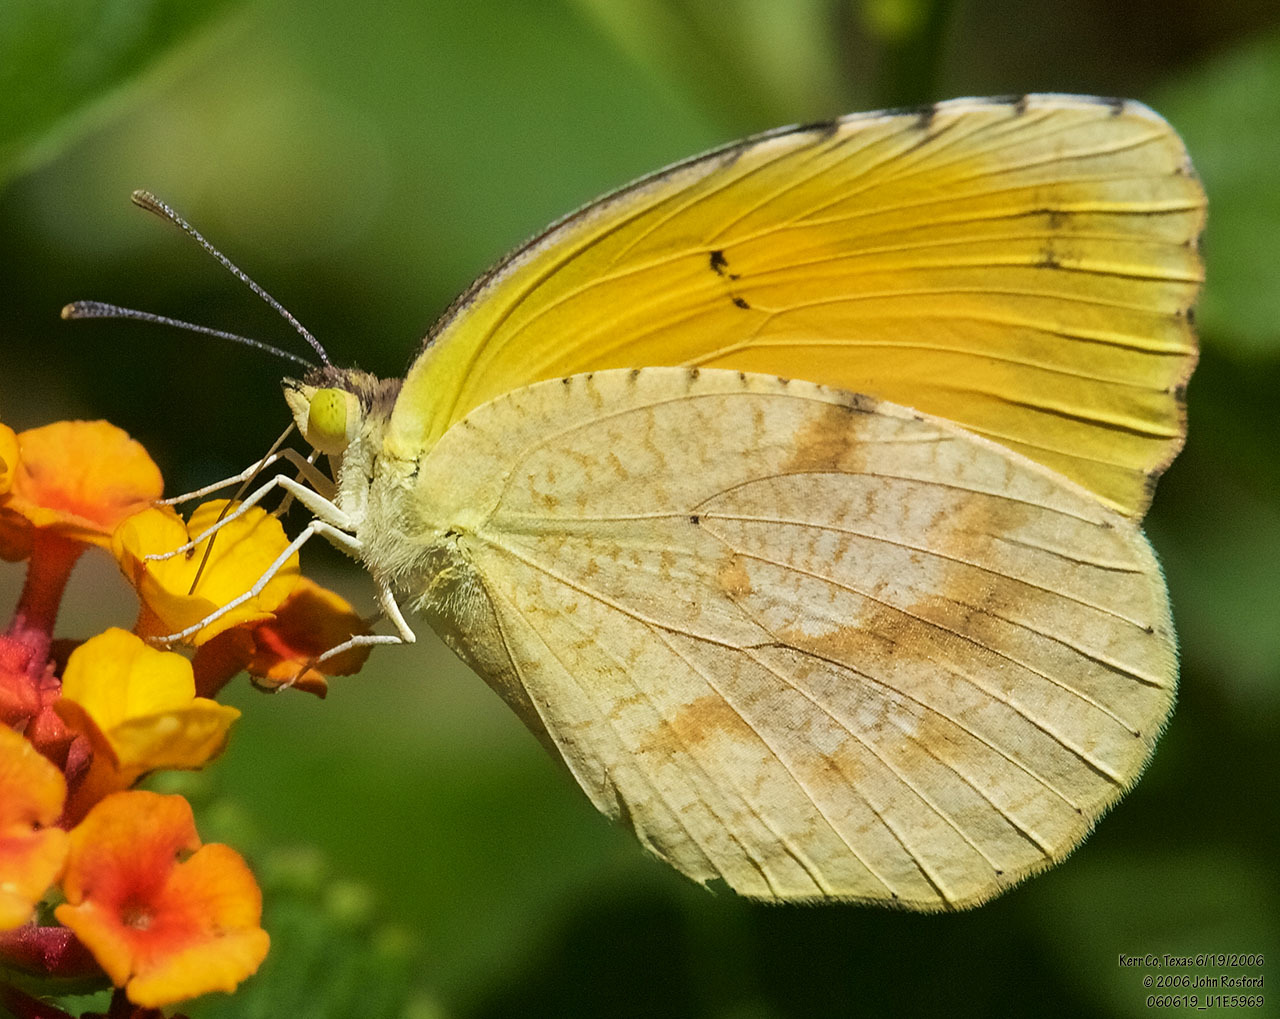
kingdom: Animalia
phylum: Arthropoda
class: Insecta
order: Lepidoptera
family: Pieridae
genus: Abaeis
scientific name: Abaeis nicippe
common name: Sleepy orange
